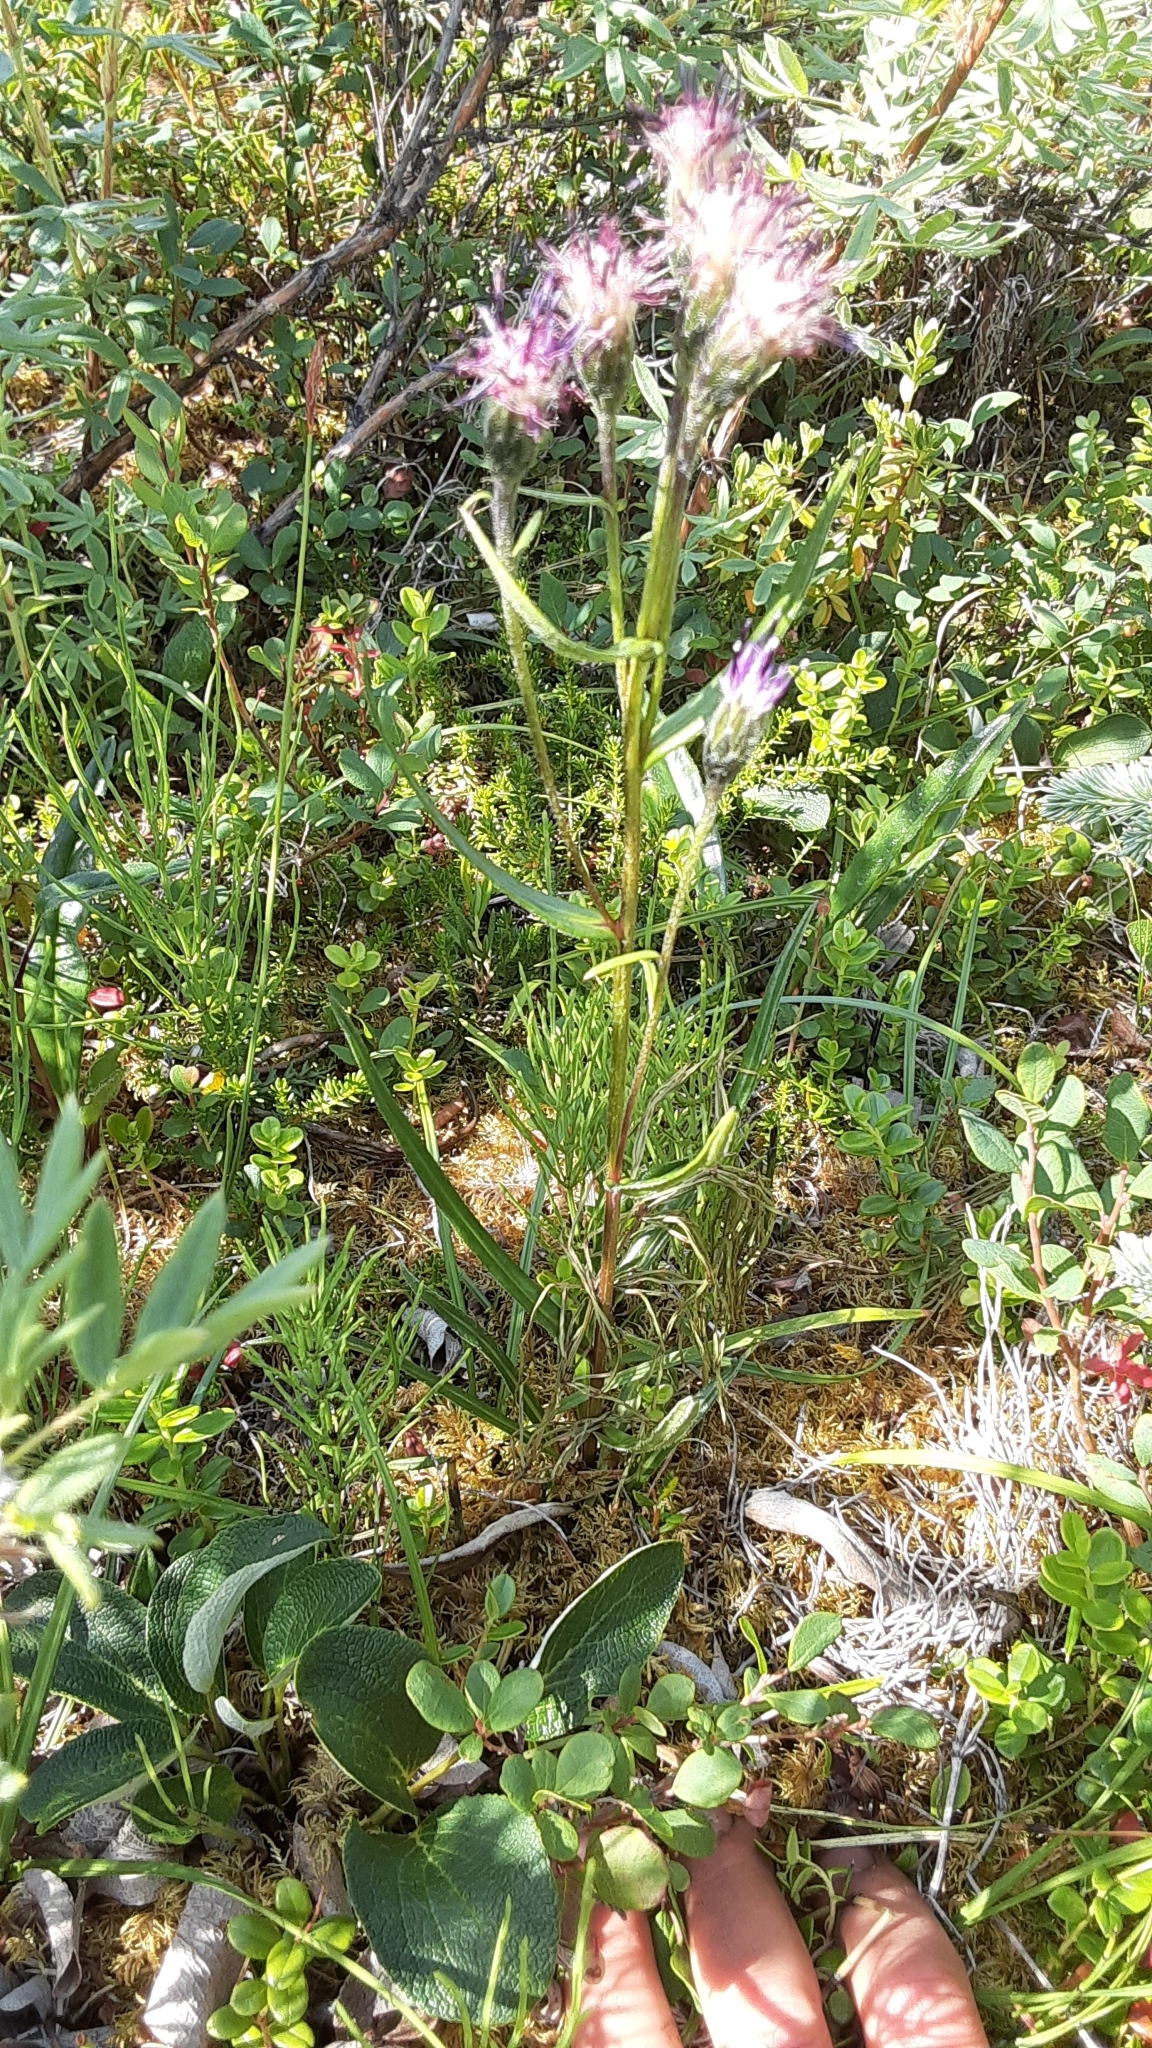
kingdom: Plantae
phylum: Tracheophyta
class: Magnoliopsida
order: Asterales
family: Asteraceae
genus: Saussurea
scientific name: Saussurea angustifolia
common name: Common saussurea
